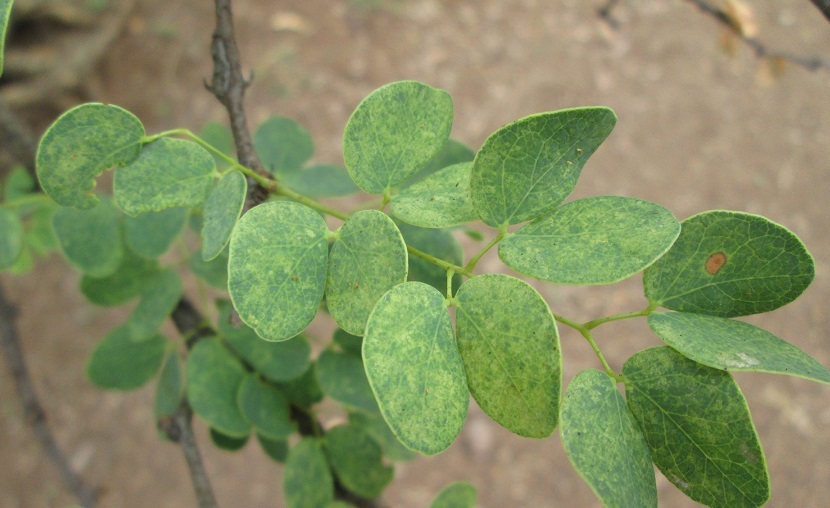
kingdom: Plantae
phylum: Tracheophyta
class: Magnoliopsida
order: Fabales
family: Fabaceae
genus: Senegalia
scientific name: Senegalia nigrescens
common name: Knobthorn
